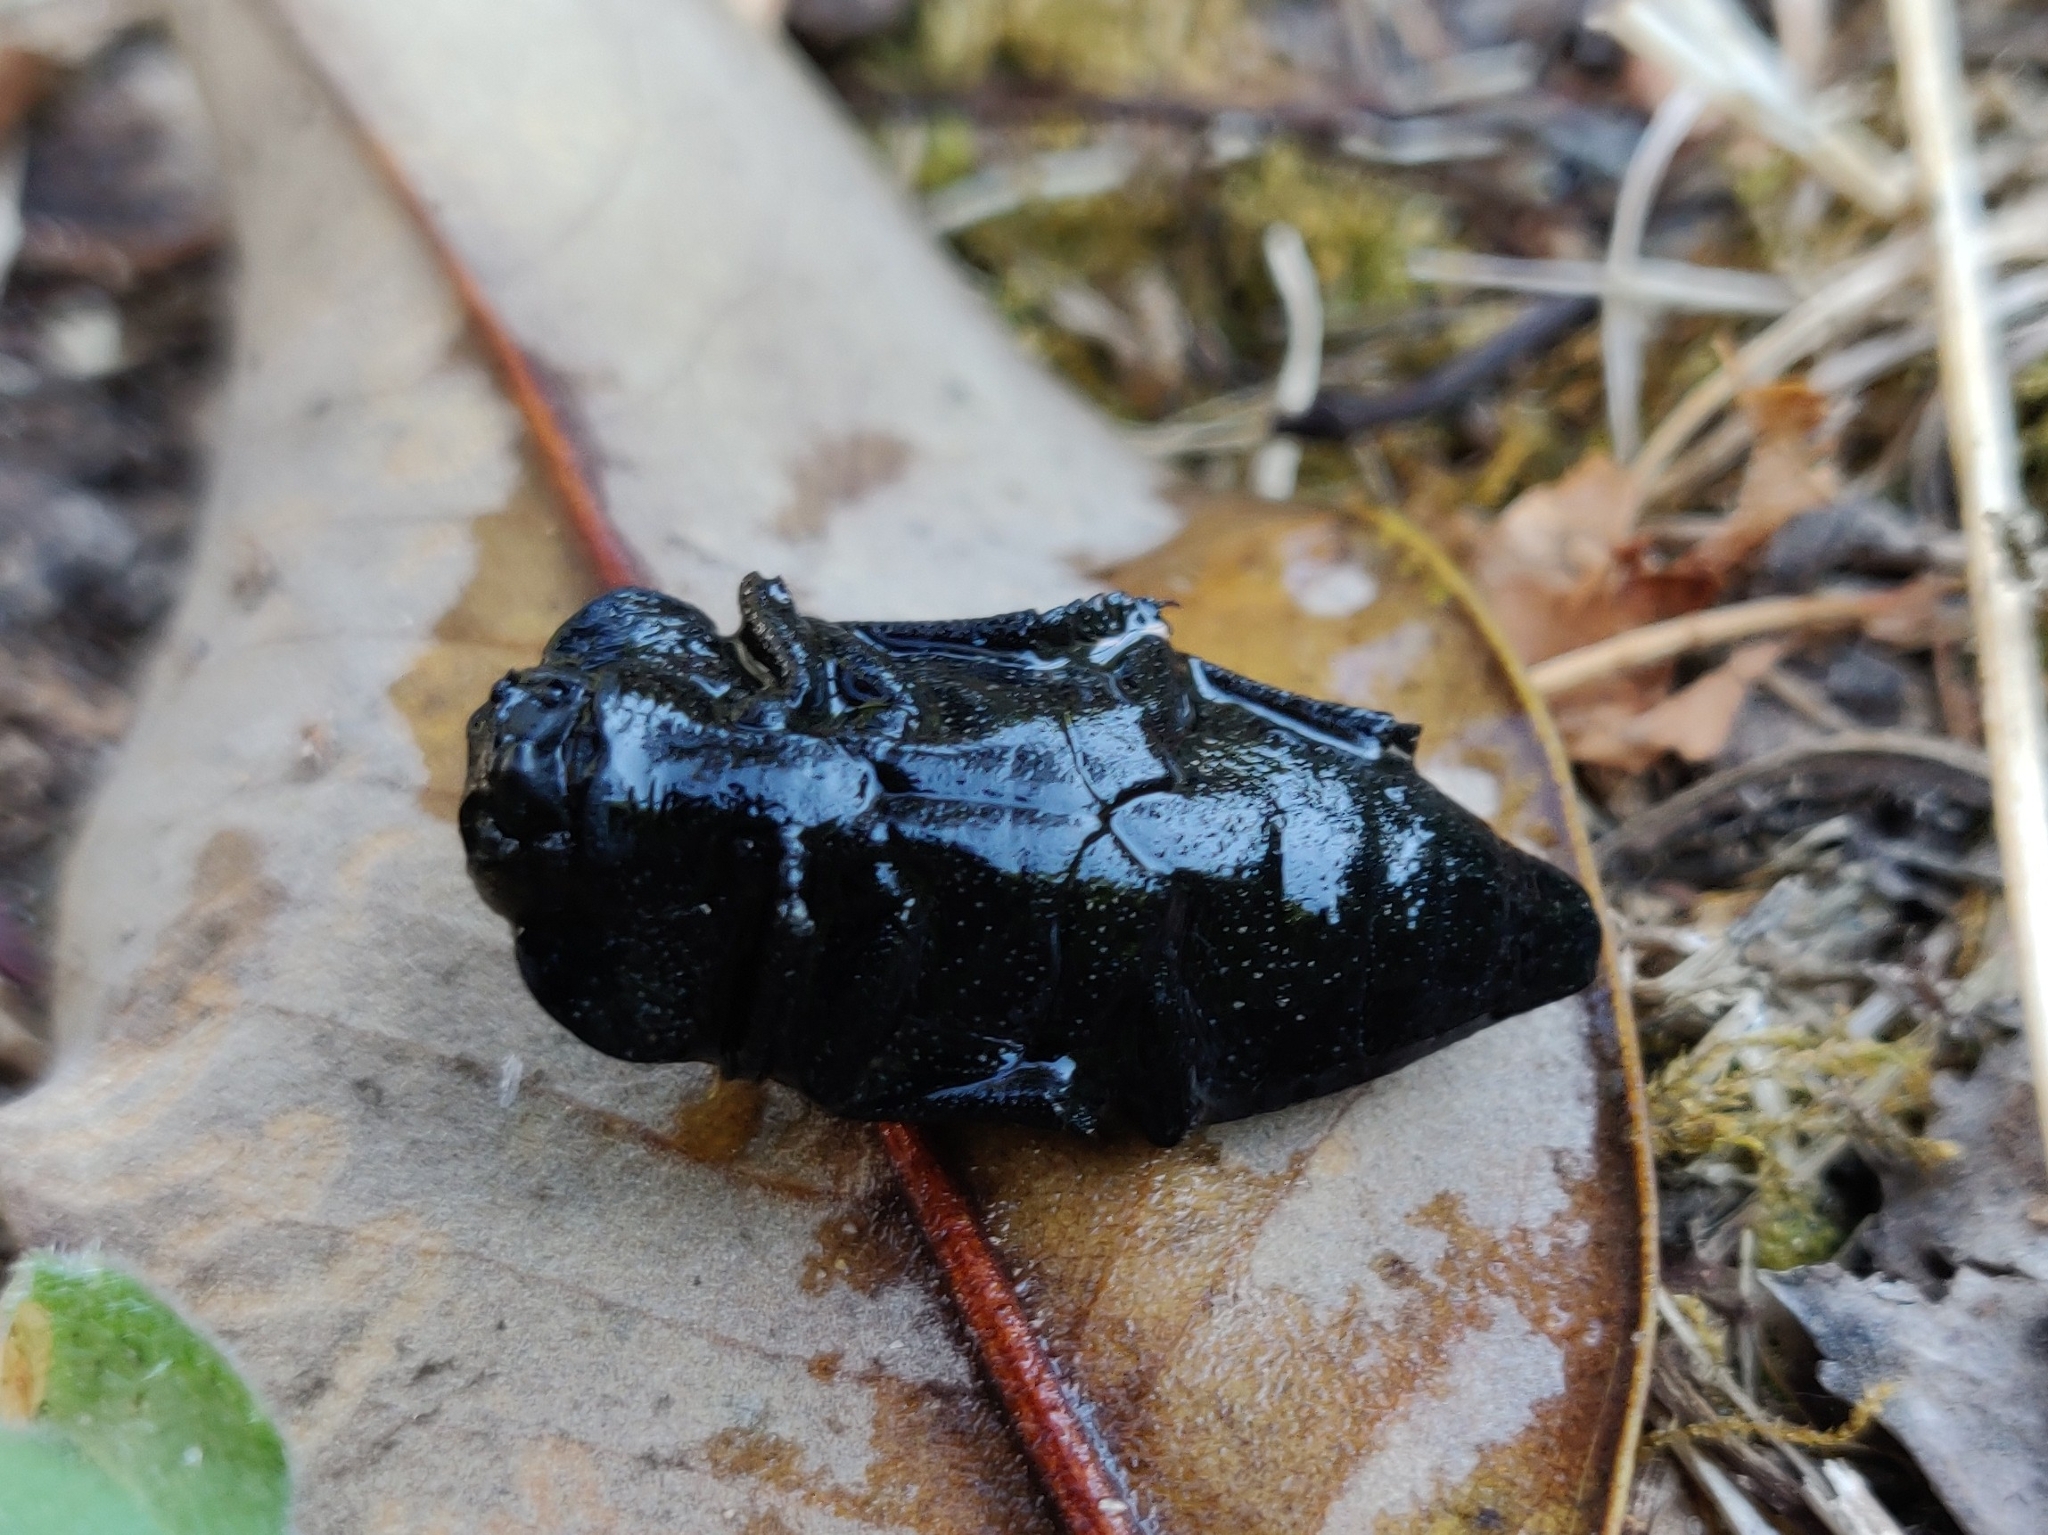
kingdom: Animalia
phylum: Arthropoda
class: Insecta
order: Coleoptera
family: Buprestidae
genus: Capnodis
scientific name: Capnodis tenebrionis
